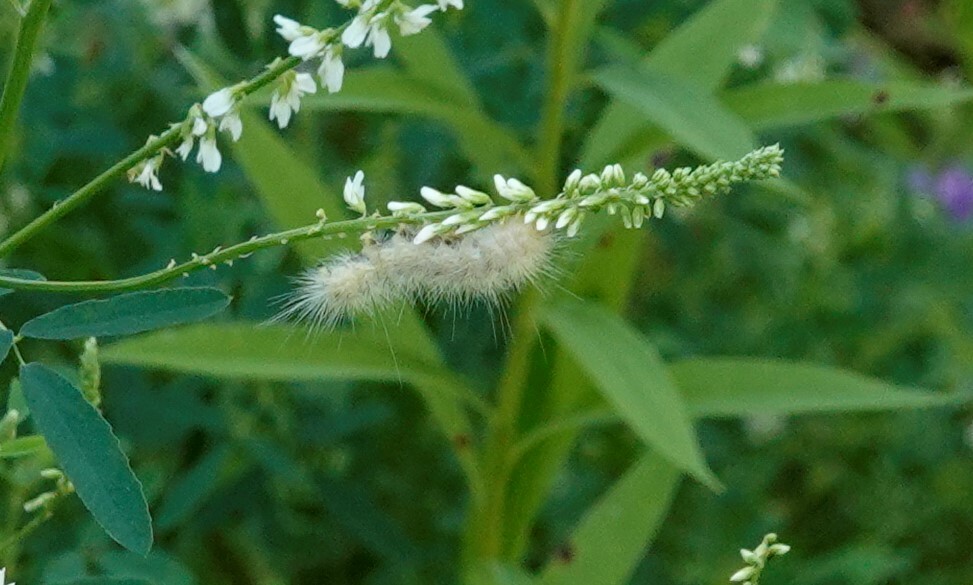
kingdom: Animalia
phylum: Arthropoda
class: Insecta
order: Lepidoptera
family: Erebidae
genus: Spilosoma
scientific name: Spilosoma virginica
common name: Virginia tiger moth
